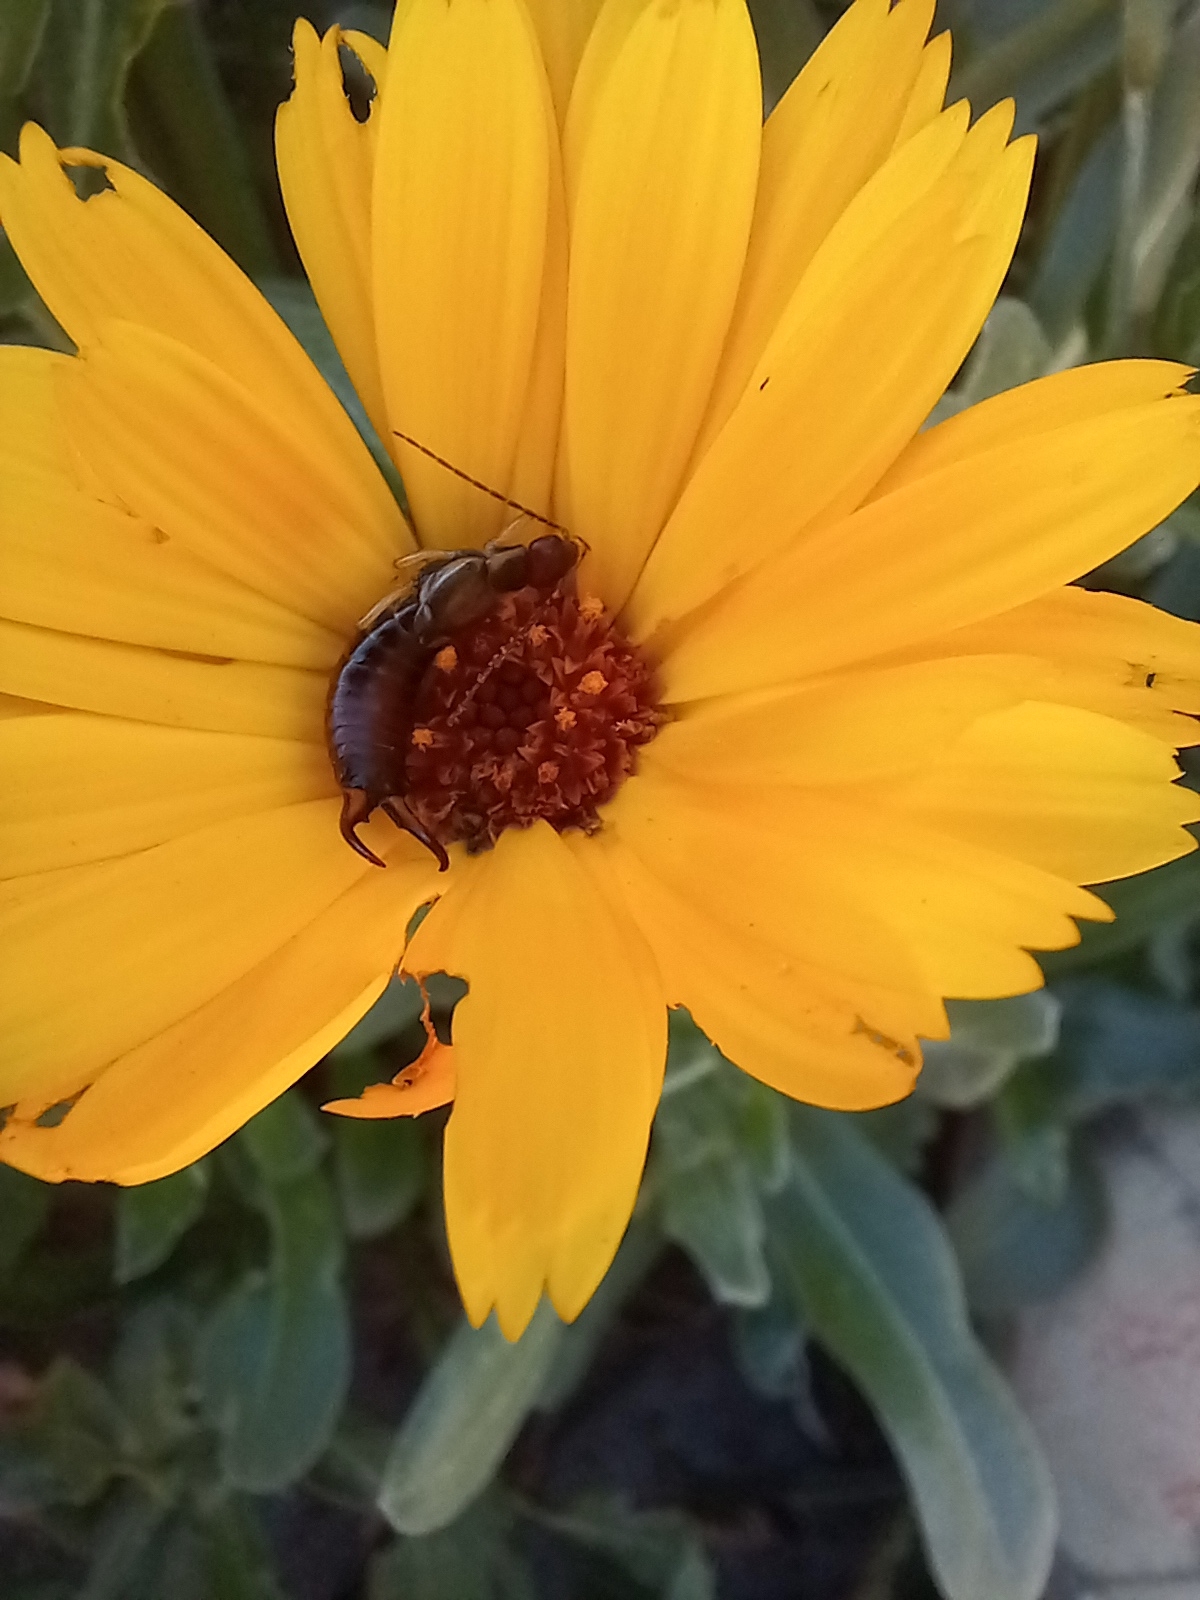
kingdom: Animalia
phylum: Arthropoda
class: Insecta
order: Dermaptera
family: Forficulidae
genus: Forficula
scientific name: Forficula
